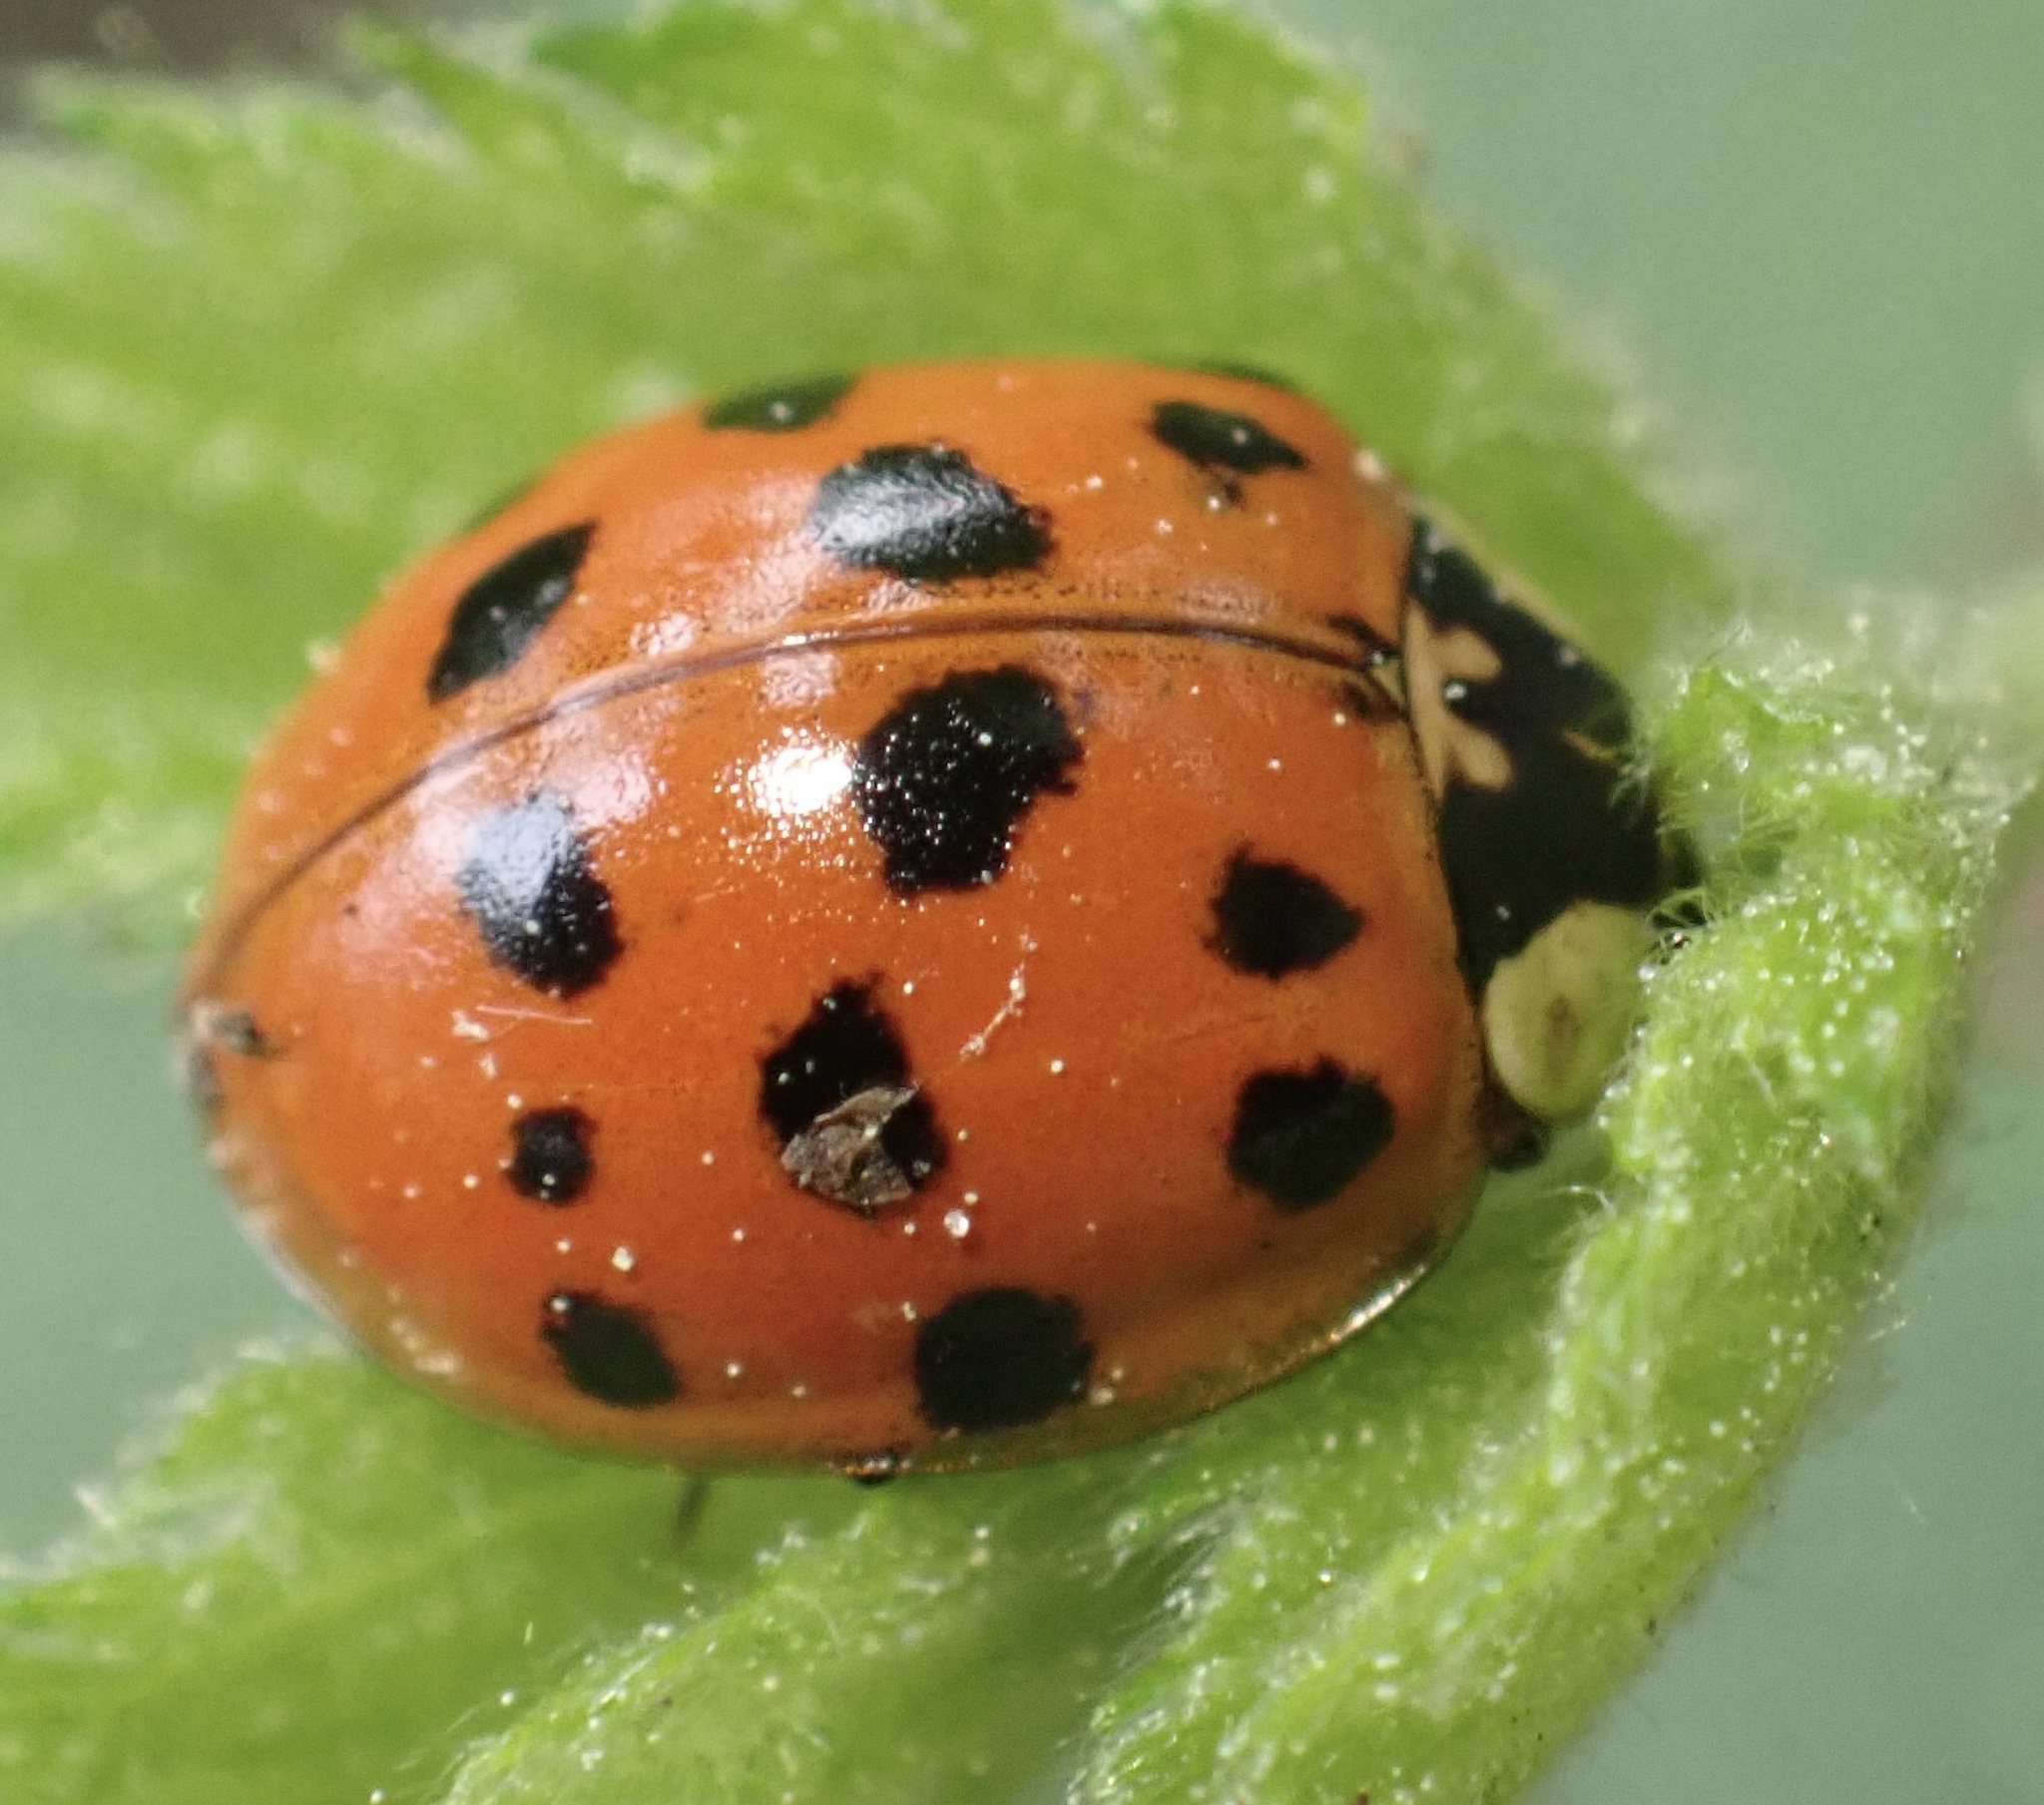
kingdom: Animalia
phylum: Arthropoda
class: Insecta
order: Coleoptera
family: Coccinellidae
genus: Harmonia
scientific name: Harmonia axyridis
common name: Harlequin ladybird
